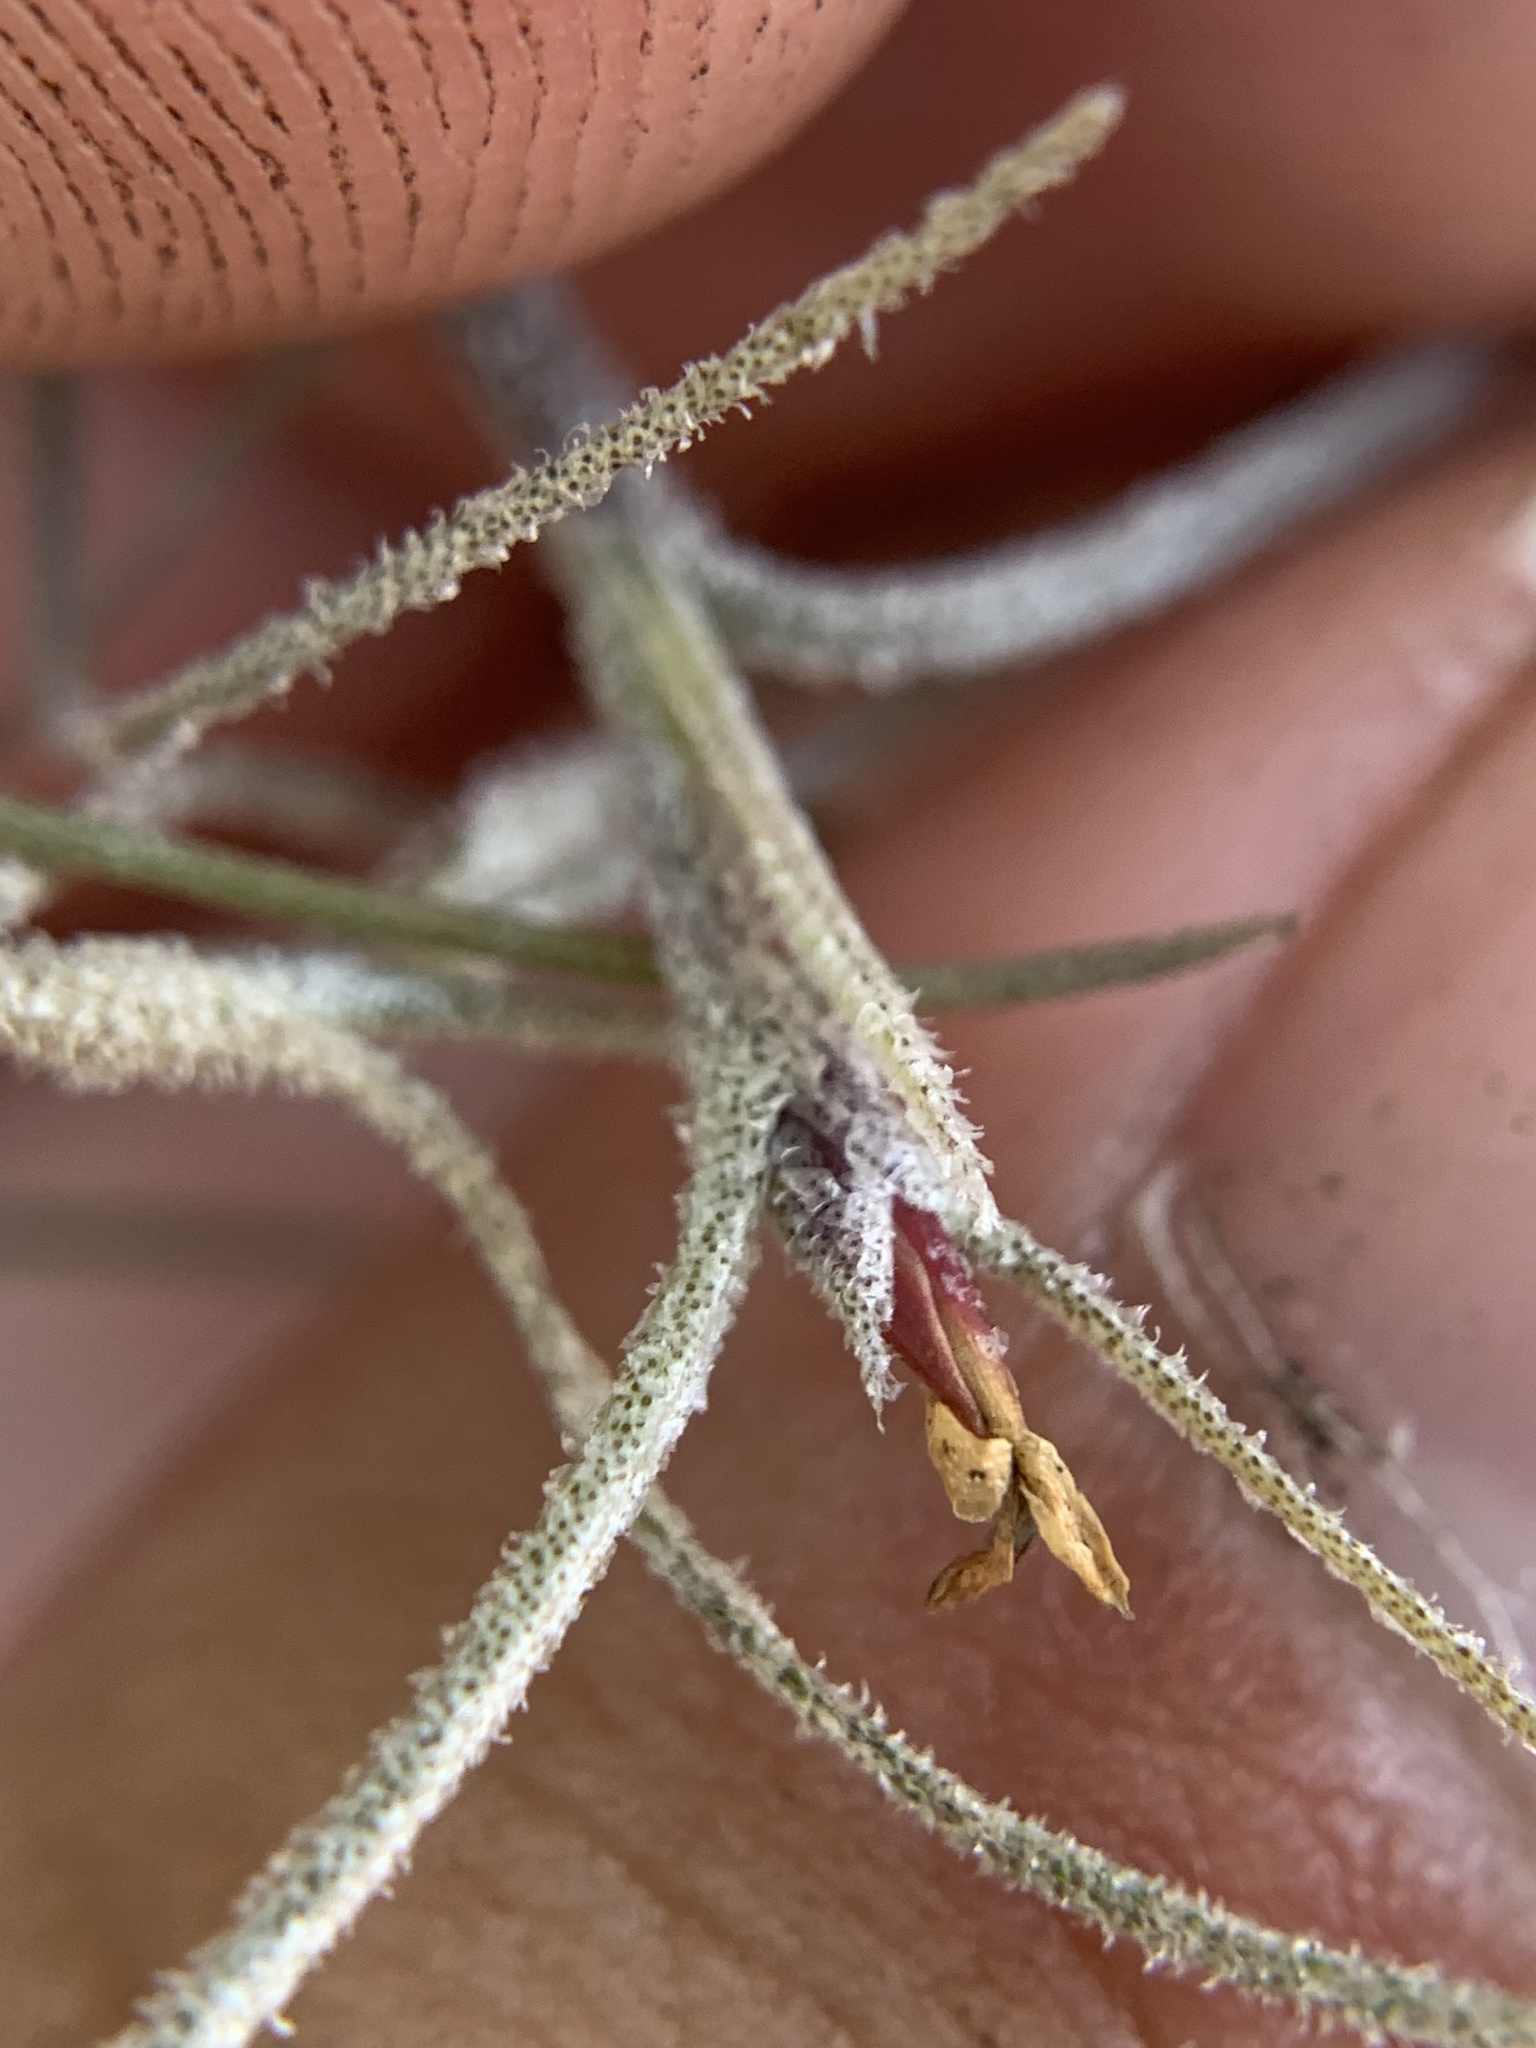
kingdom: Plantae
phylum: Tracheophyta
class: Liliopsida
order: Poales
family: Bromeliaceae
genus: Tillandsia
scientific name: Tillandsia usneoides
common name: Spanish moss
